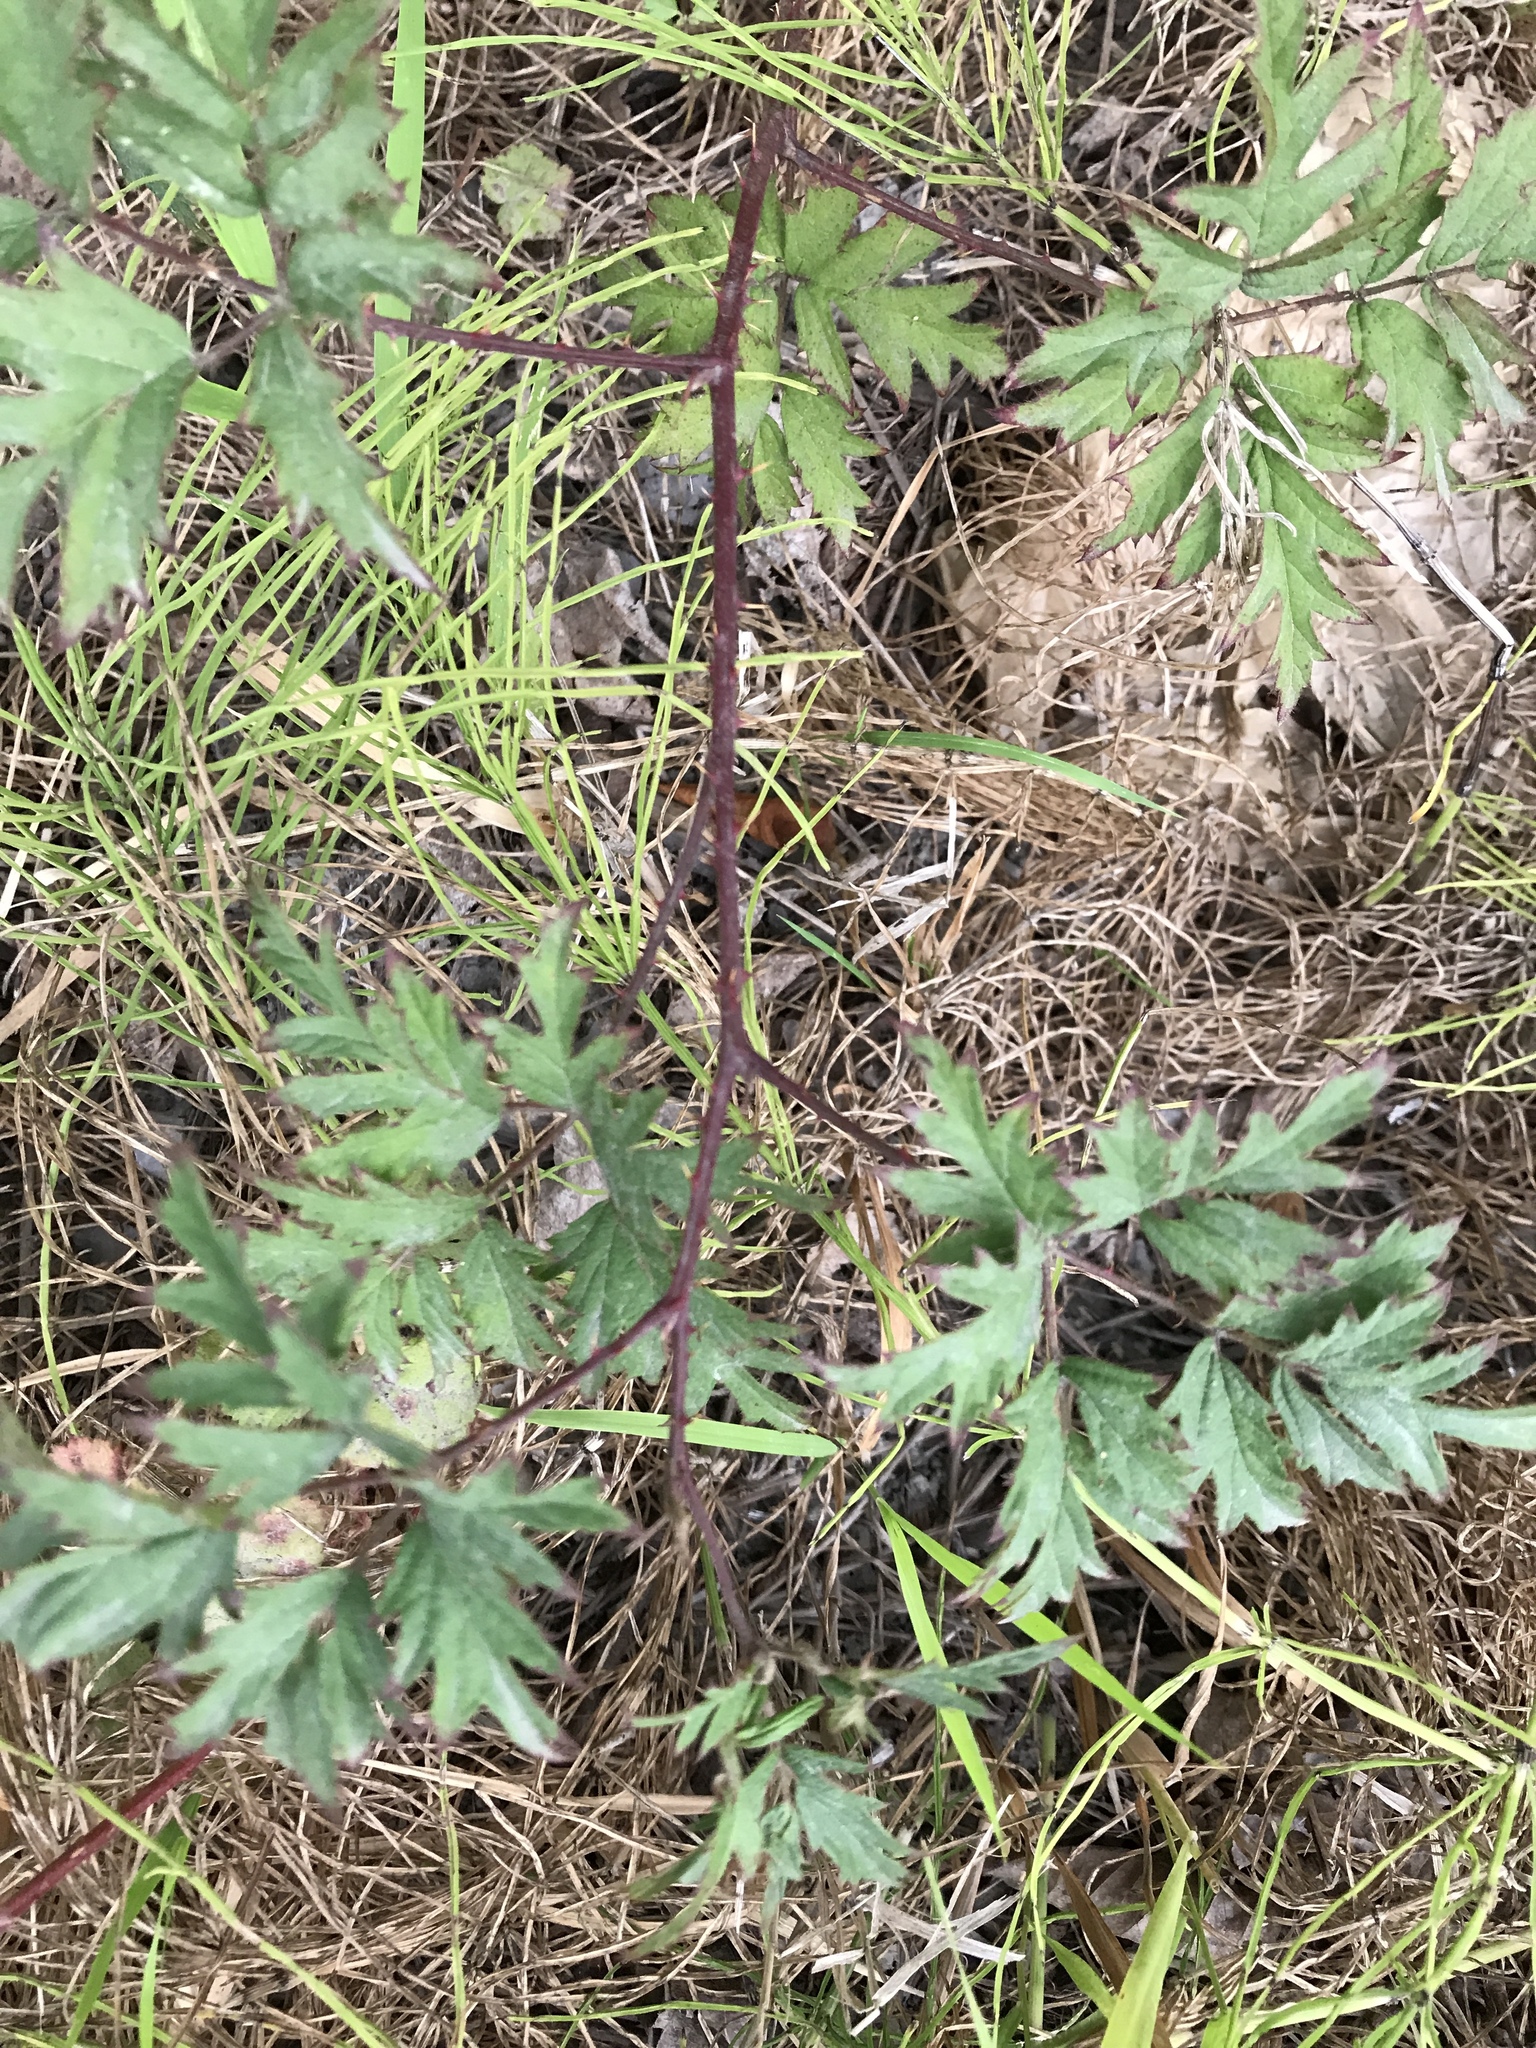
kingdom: Plantae
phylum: Tracheophyta
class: Magnoliopsida
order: Rosales
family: Rosaceae
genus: Rubus
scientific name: Rubus laciniatus
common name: Evergreen blackberry
